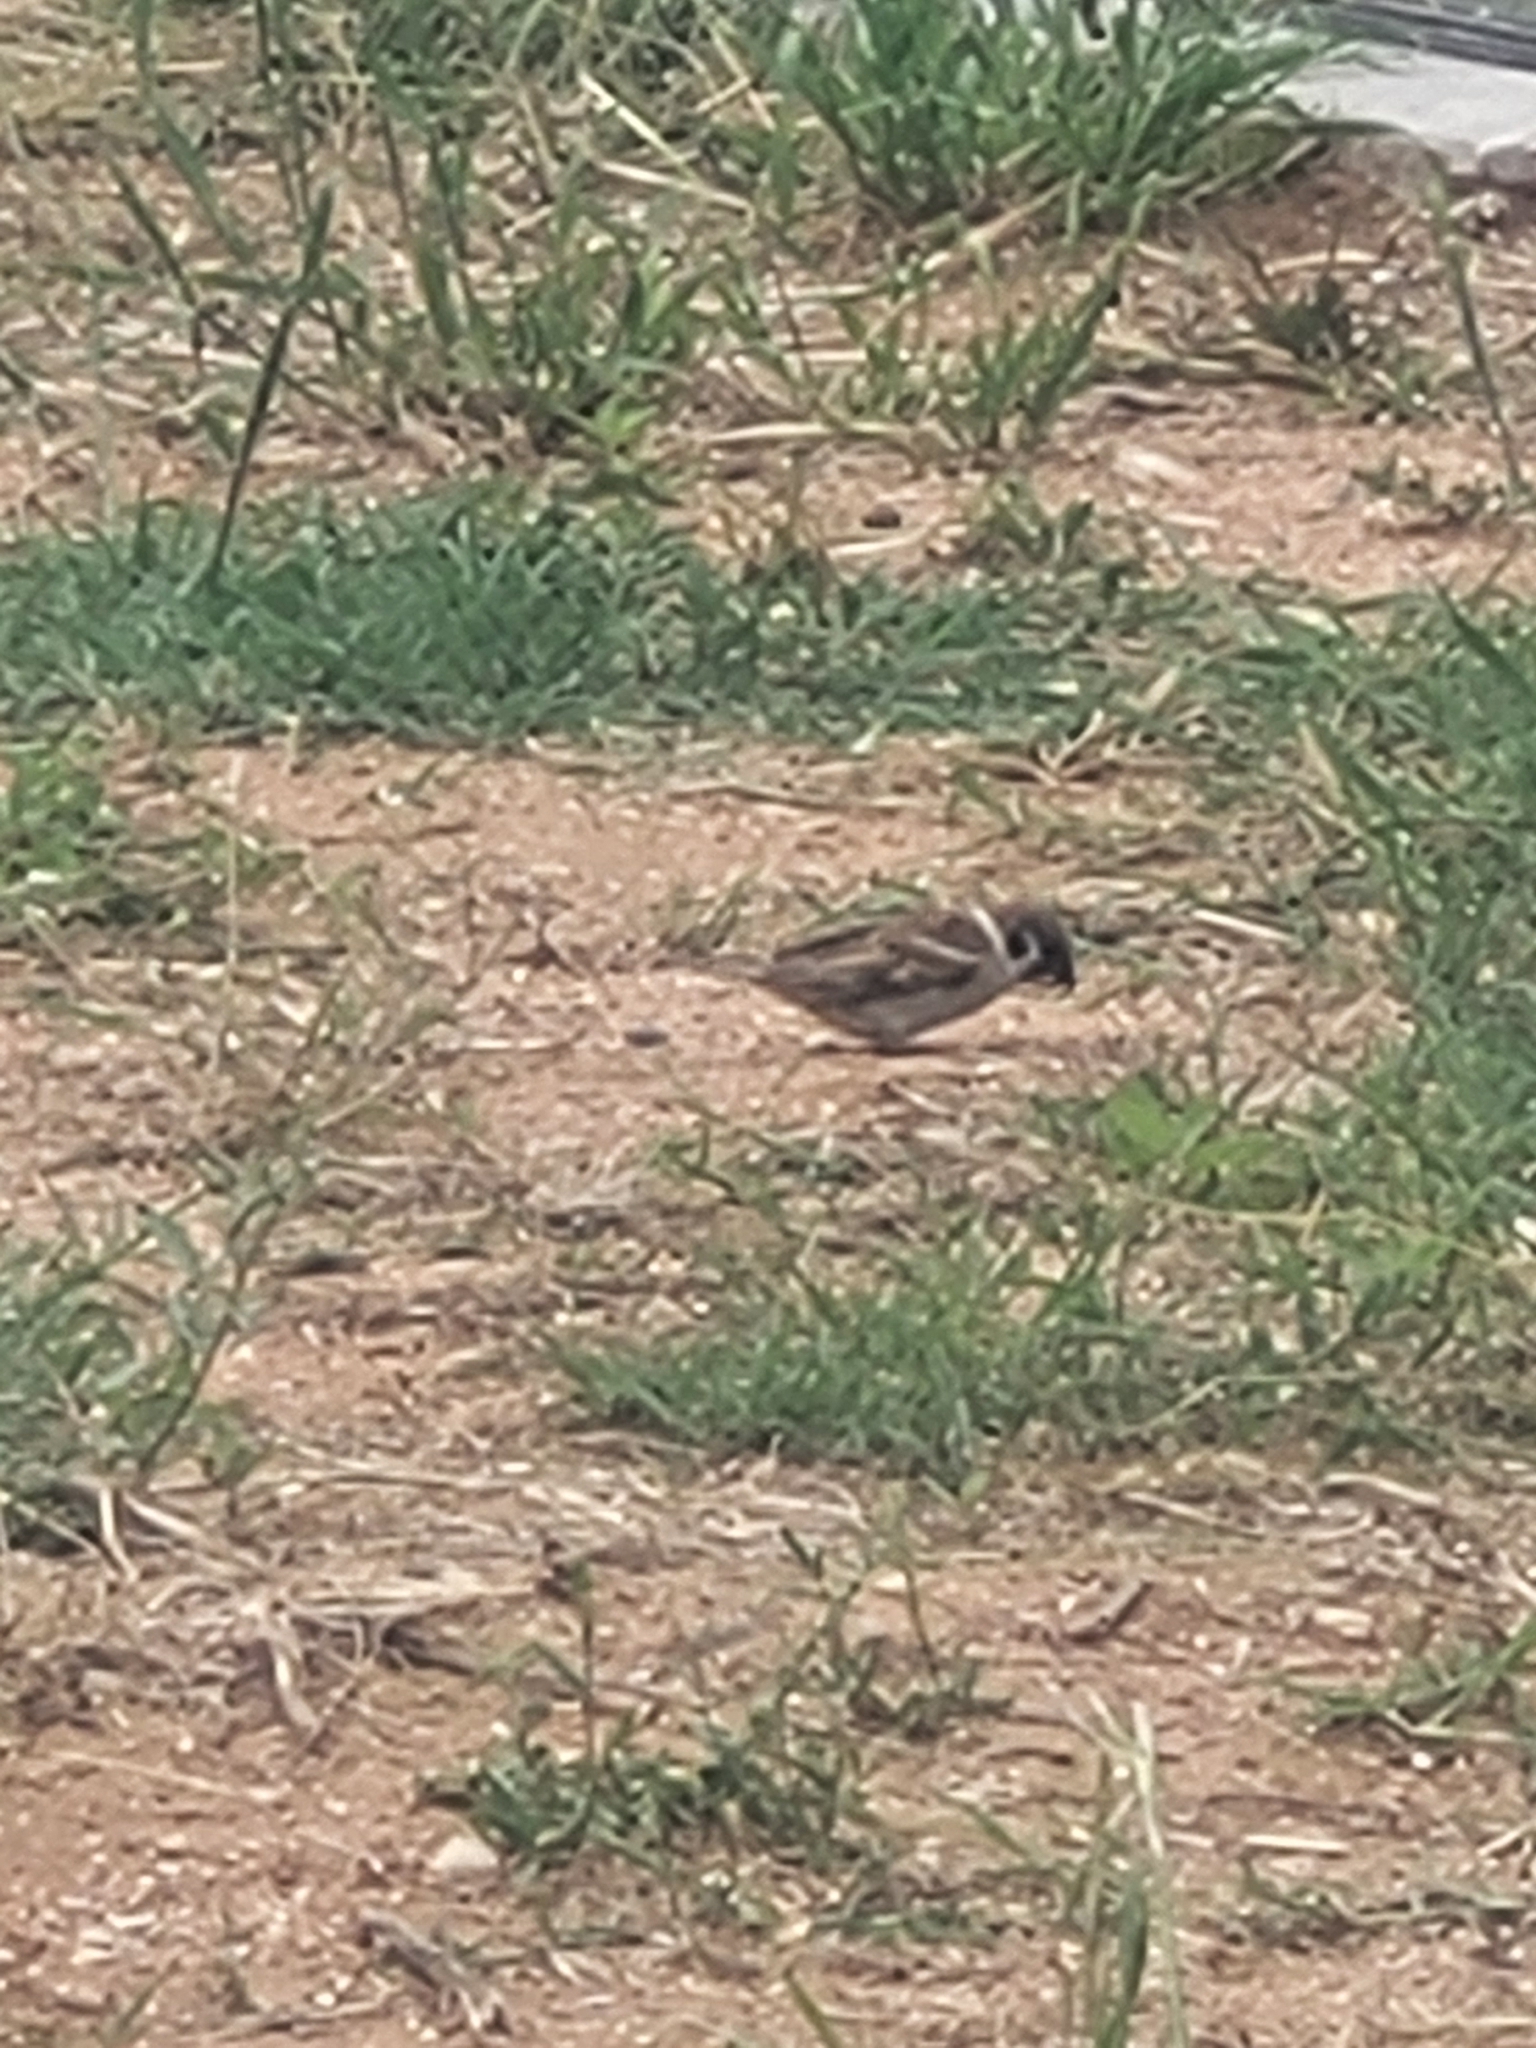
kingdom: Animalia
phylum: Chordata
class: Aves
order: Passeriformes
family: Passeridae
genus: Passer
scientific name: Passer montanus
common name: Eurasian tree sparrow
